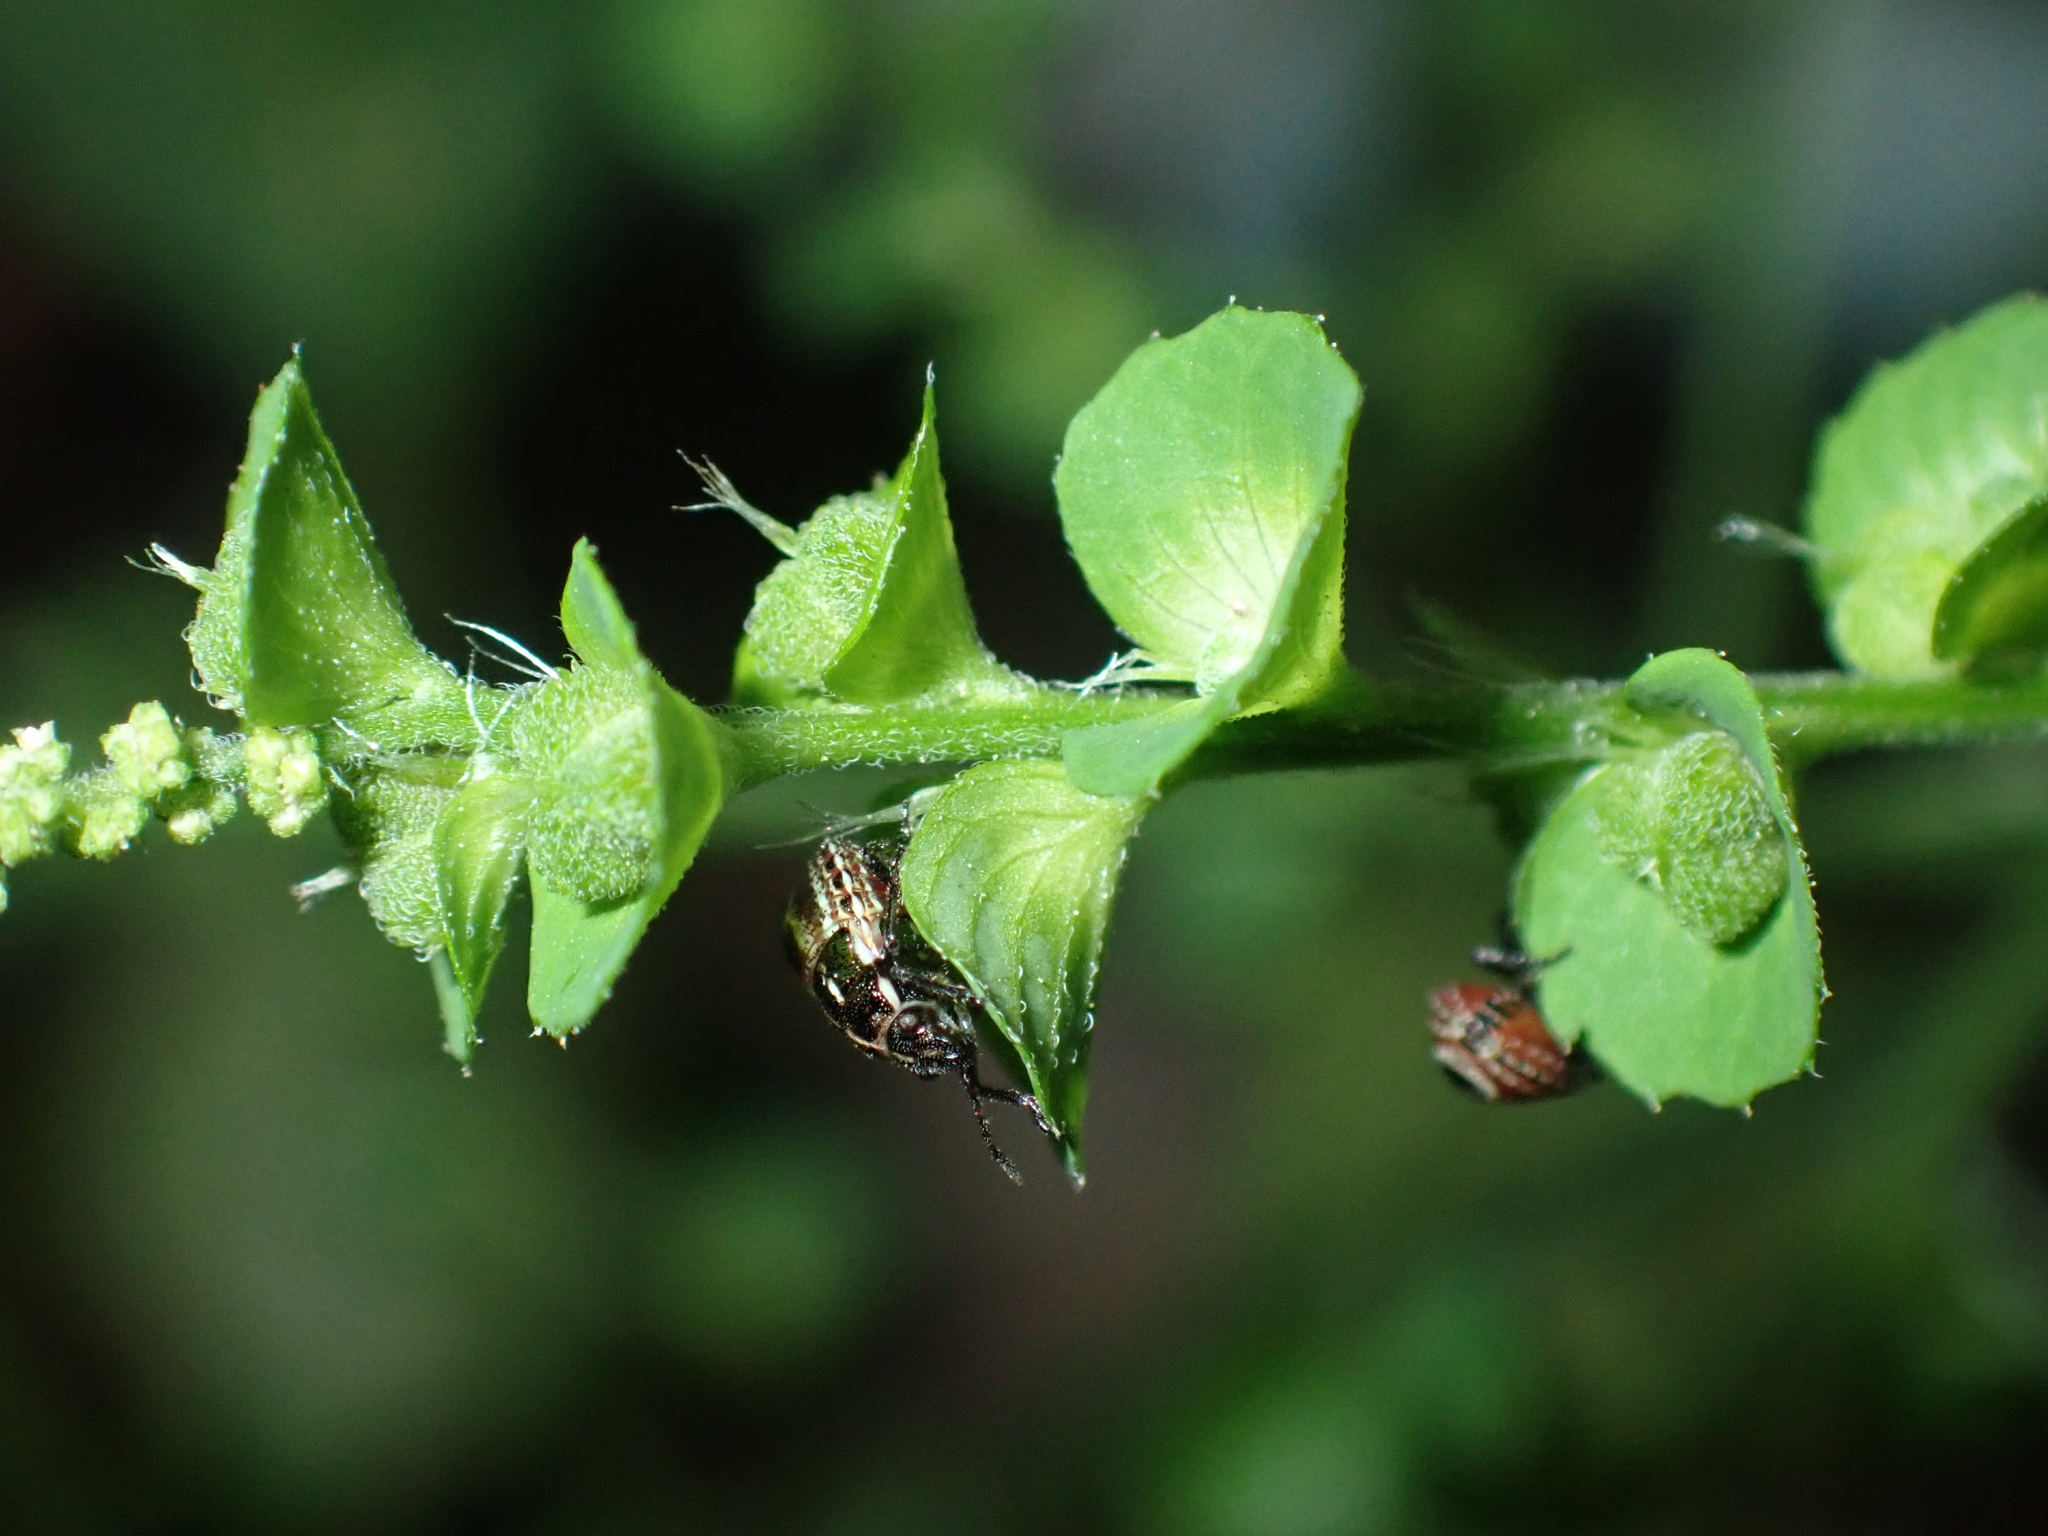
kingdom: Plantae
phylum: Tracheophyta
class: Magnoliopsida
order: Malpighiales
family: Euphorbiaceae
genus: Acalypha
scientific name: Acalypha indica
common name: Indian acalypha
